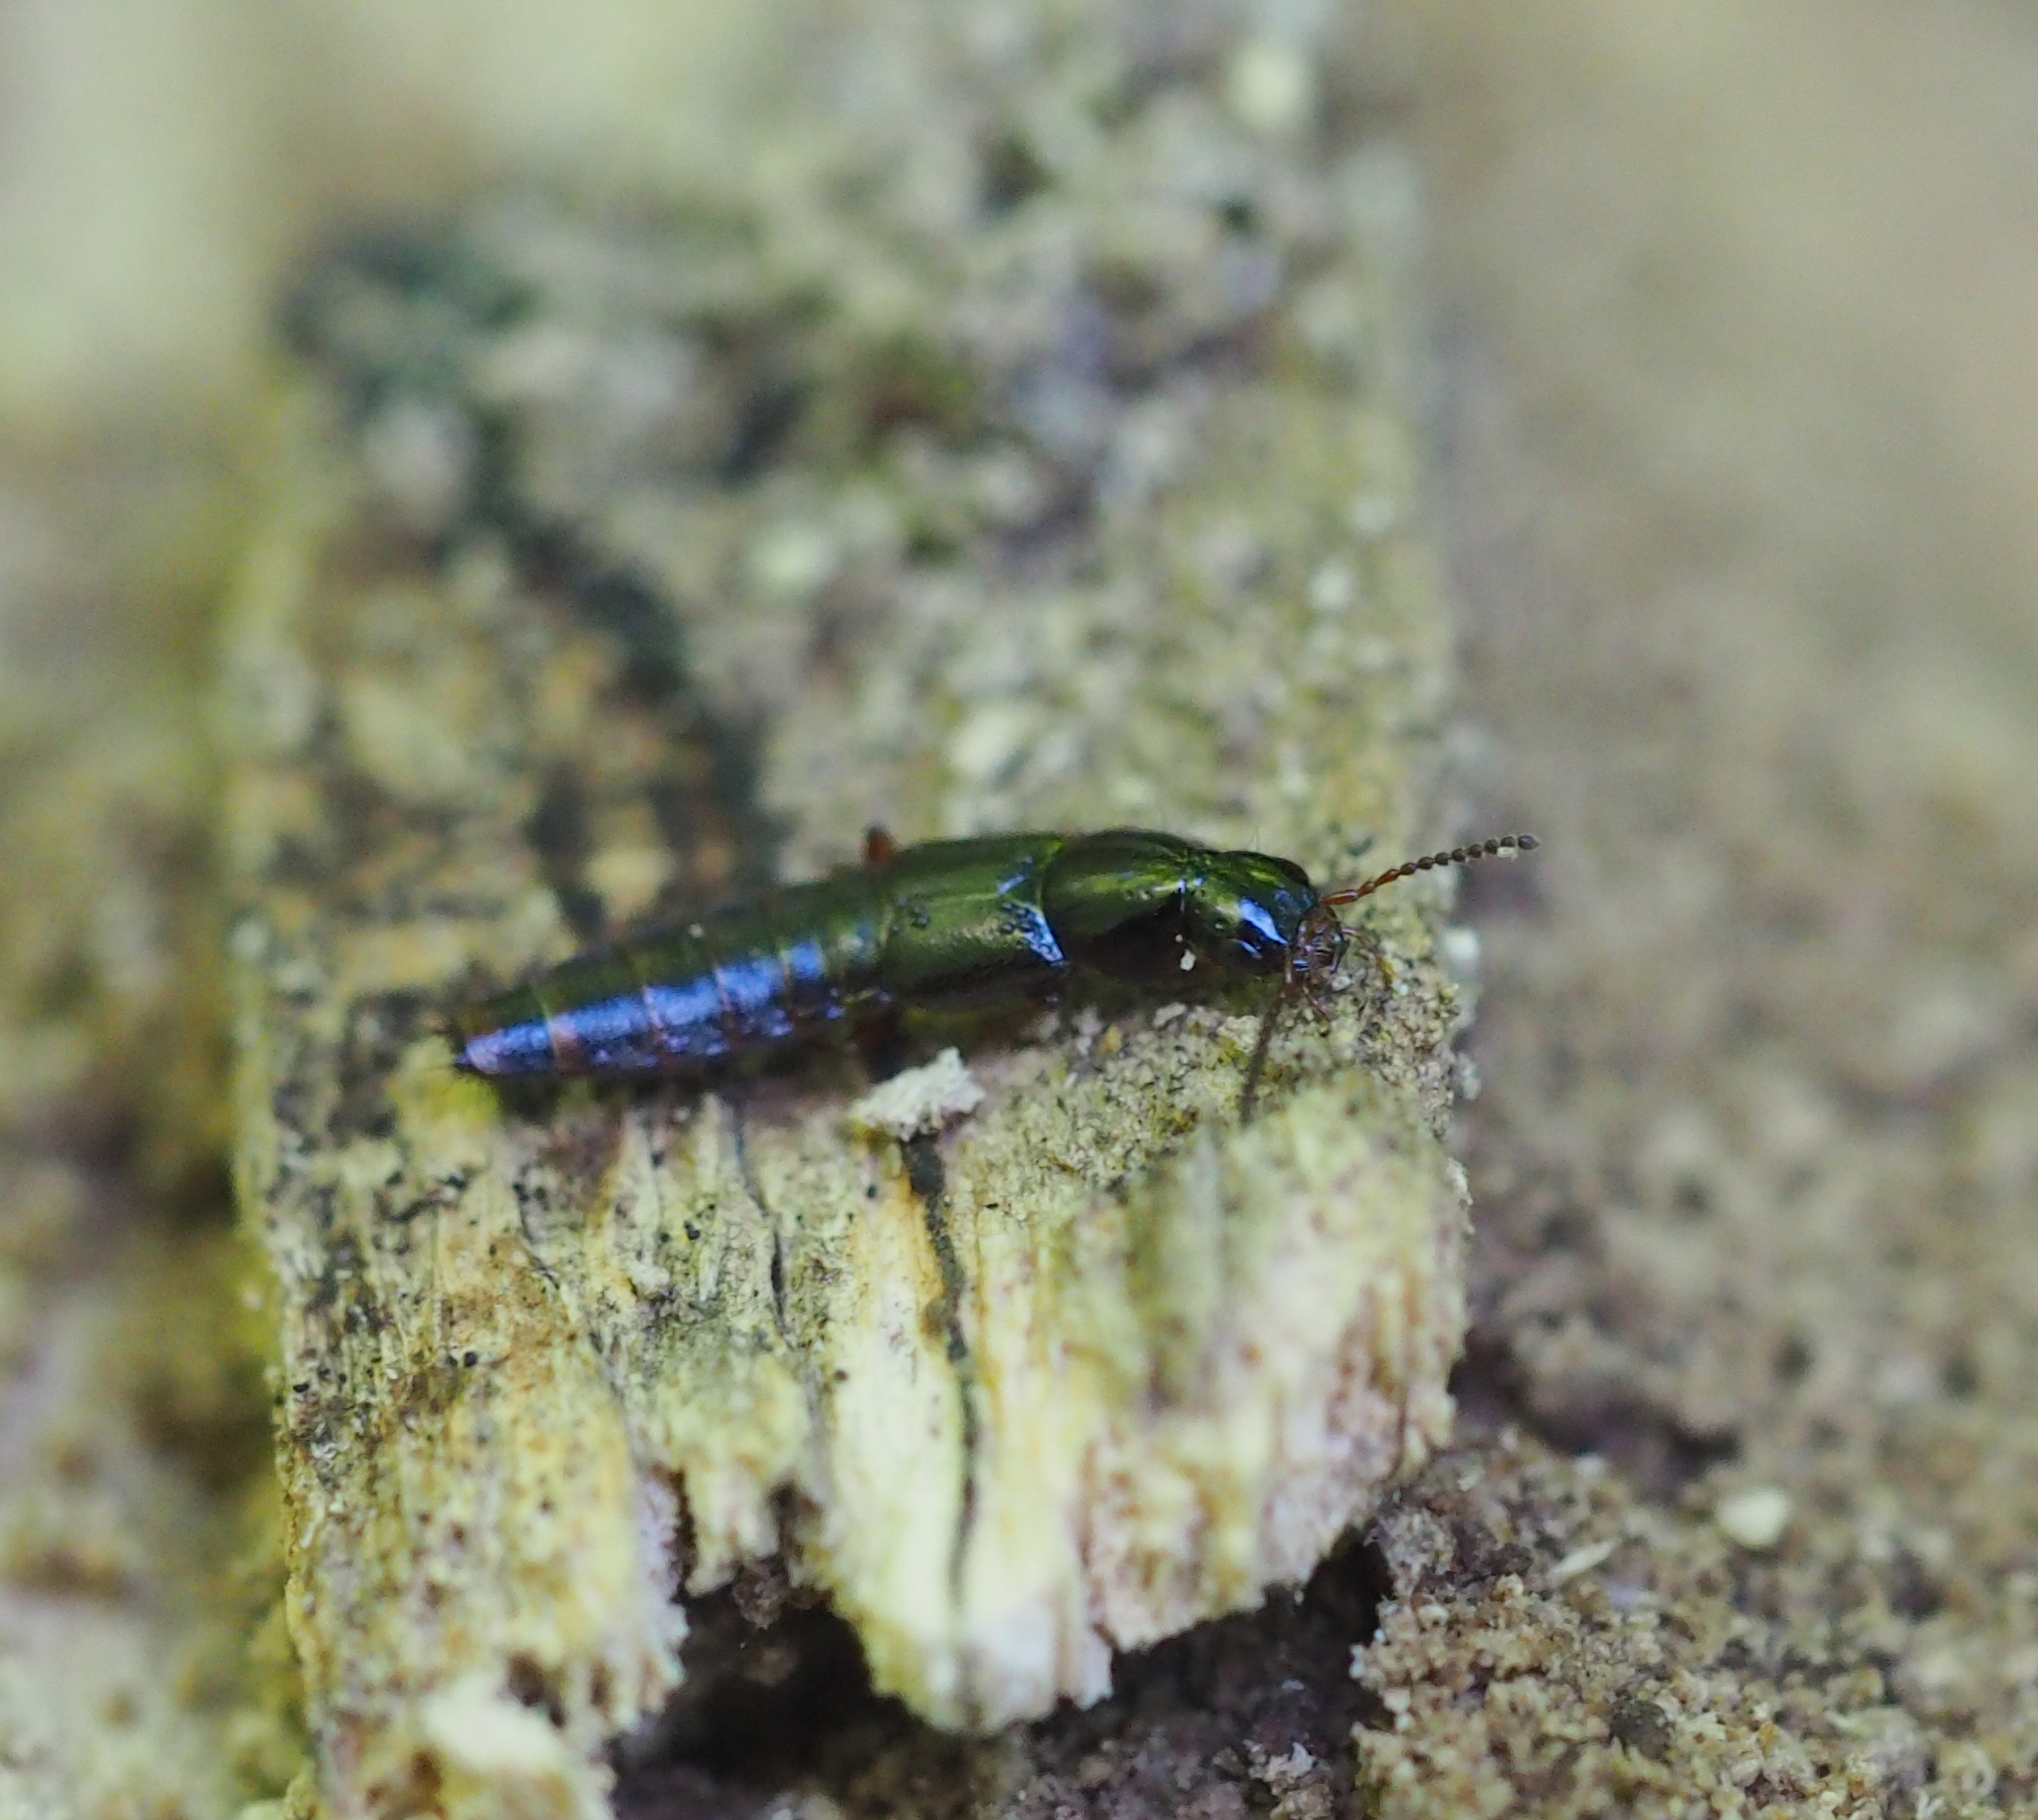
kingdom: Animalia
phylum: Arthropoda
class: Insecta
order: Coleoptera
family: Staphylinidae
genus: Quedius
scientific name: Quedius xanthopus
